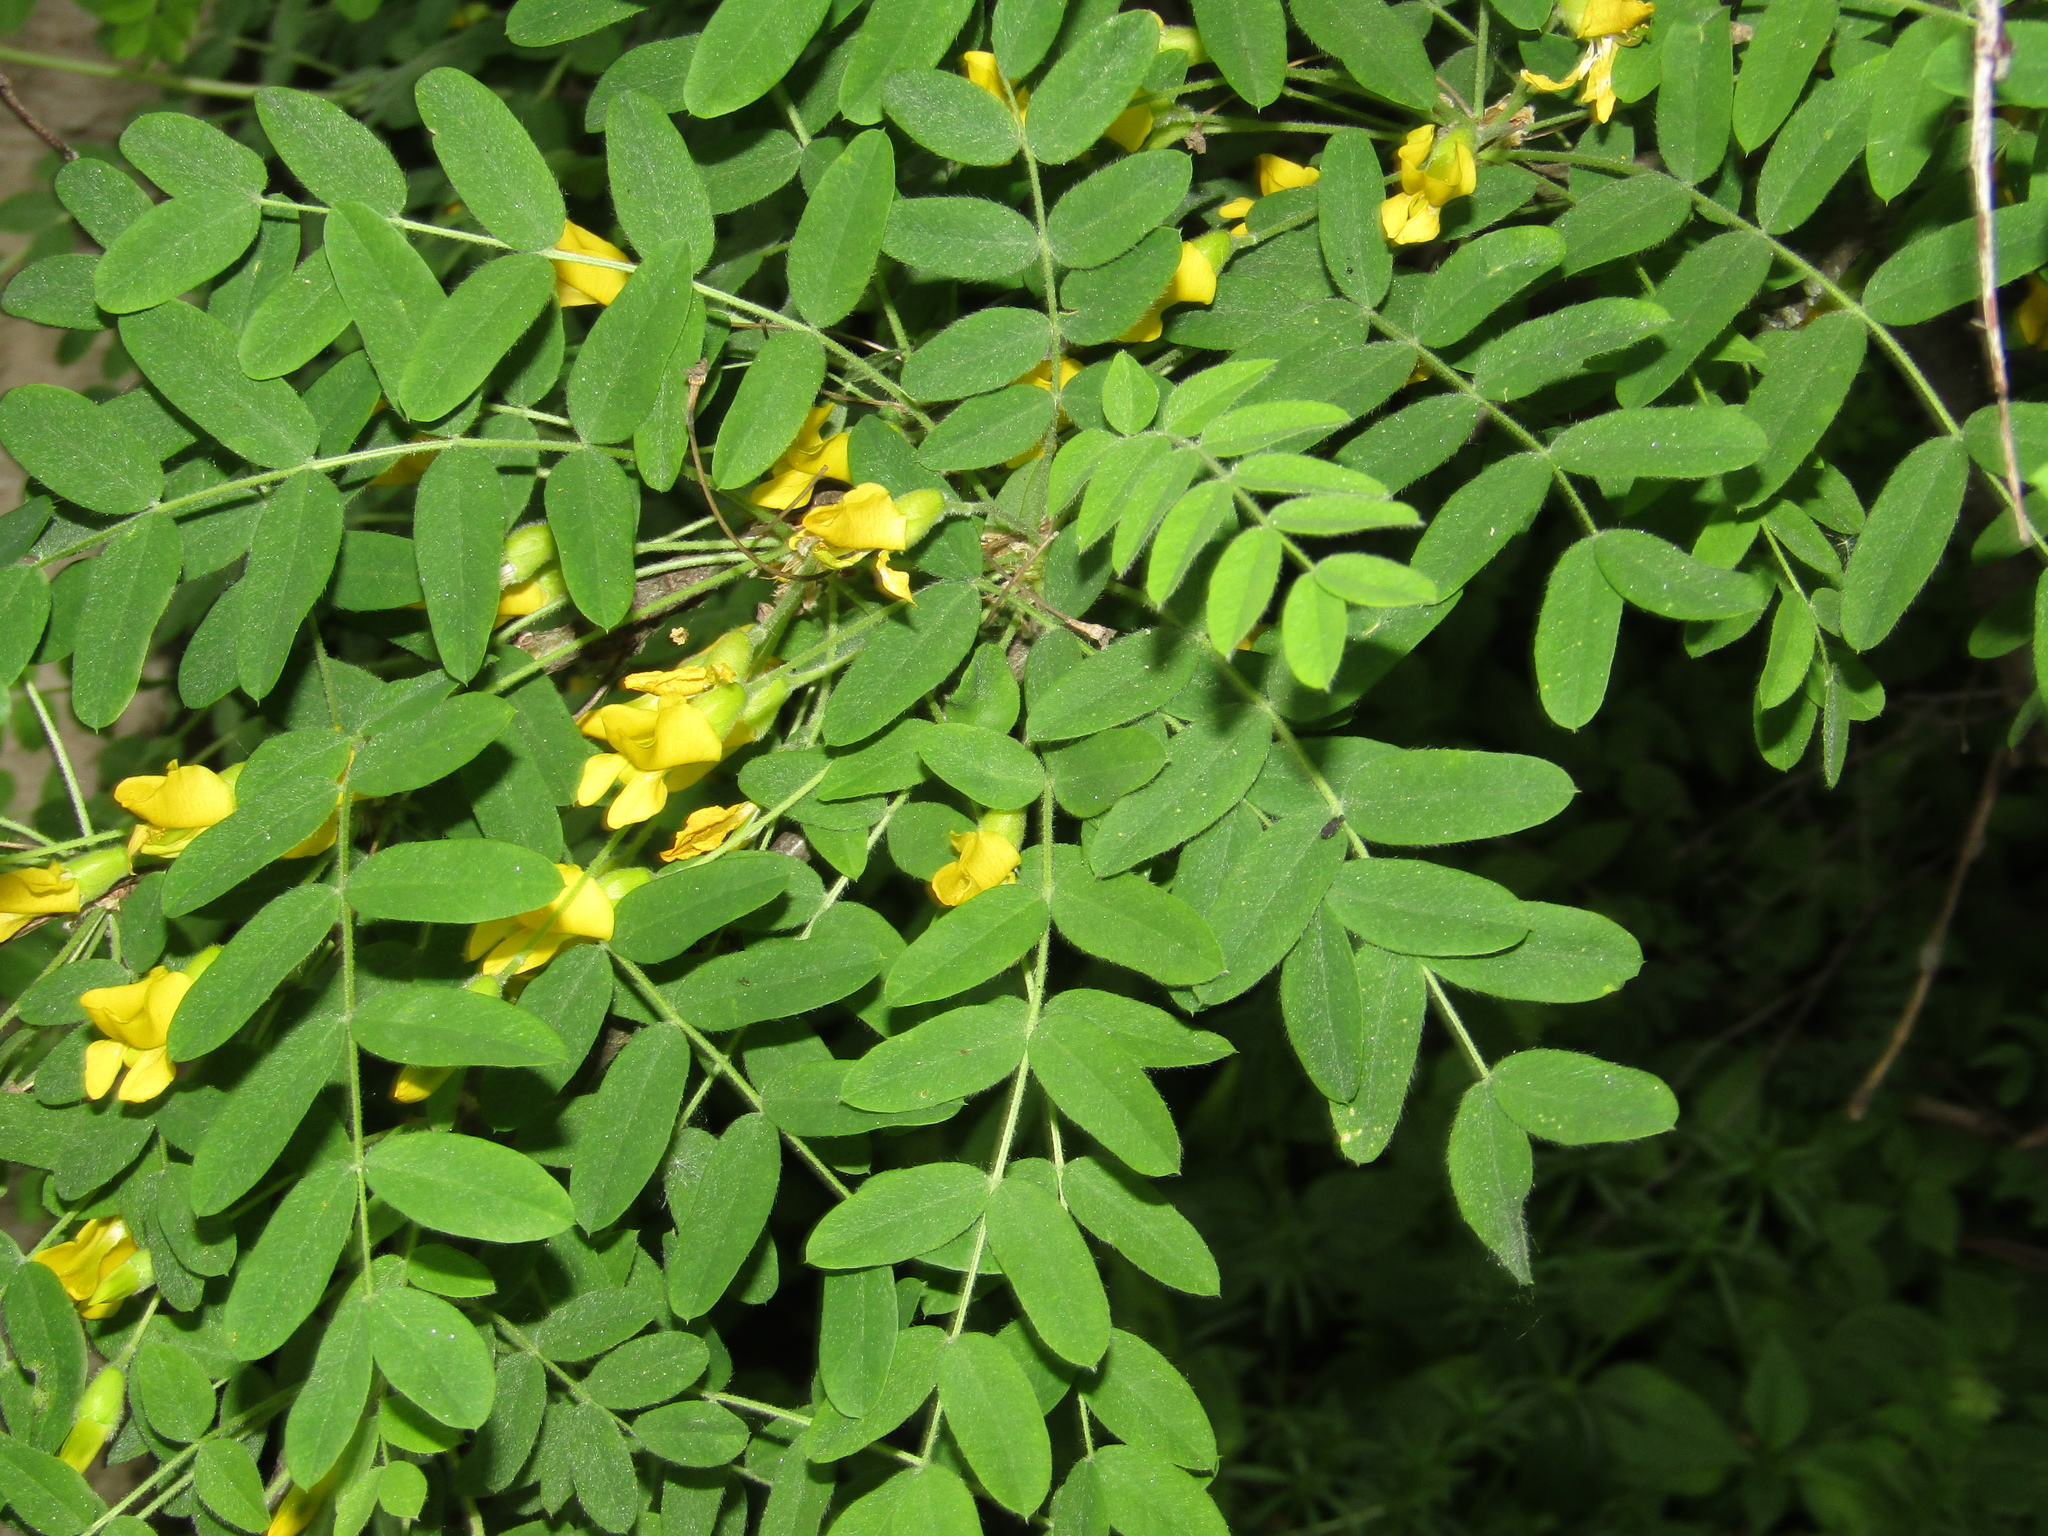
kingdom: Plantae
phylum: Tracheophyta
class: Magnoliopsida
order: Fabales
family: Fabaceae
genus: Caragana
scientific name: Caragana arborescens
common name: Siberian peashrub
